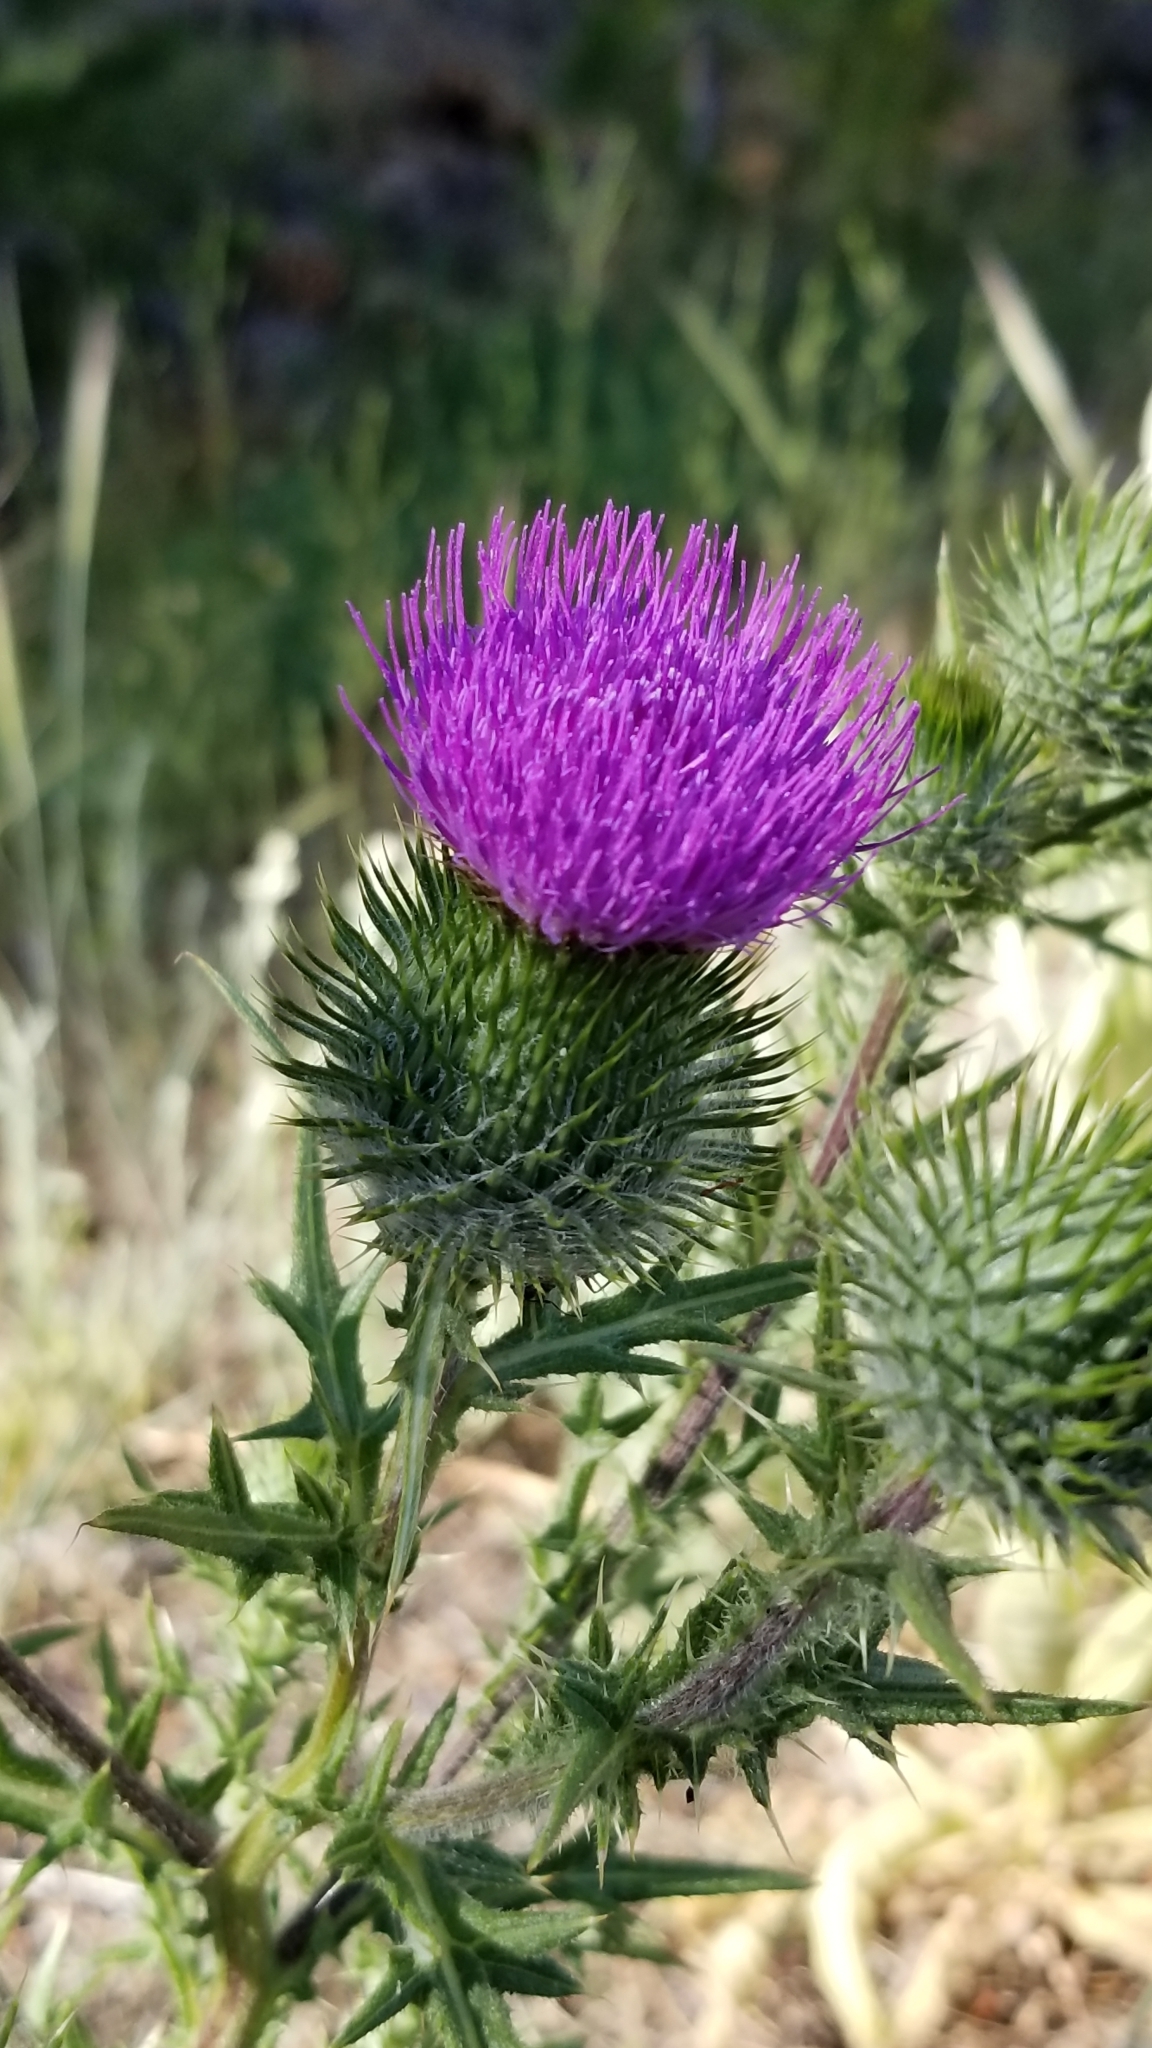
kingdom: Plantae
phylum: Tracheophyta
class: Magnoliopsida
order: Asterales
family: Asteraceae
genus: Cirsium
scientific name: Cirsium vulgare
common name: Bull thistle
